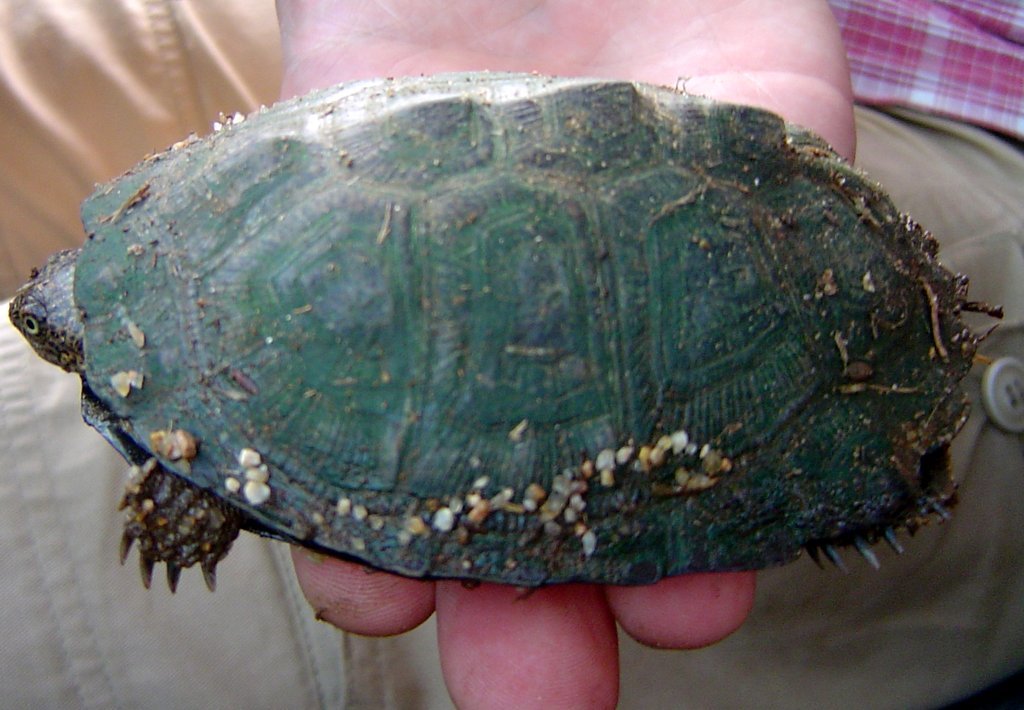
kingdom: Animalia
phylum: Chordata
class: Testudines
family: Pelomedusidae
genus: Pelusios
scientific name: Pelusios sinuatus
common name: Serrated hinged terrapin
